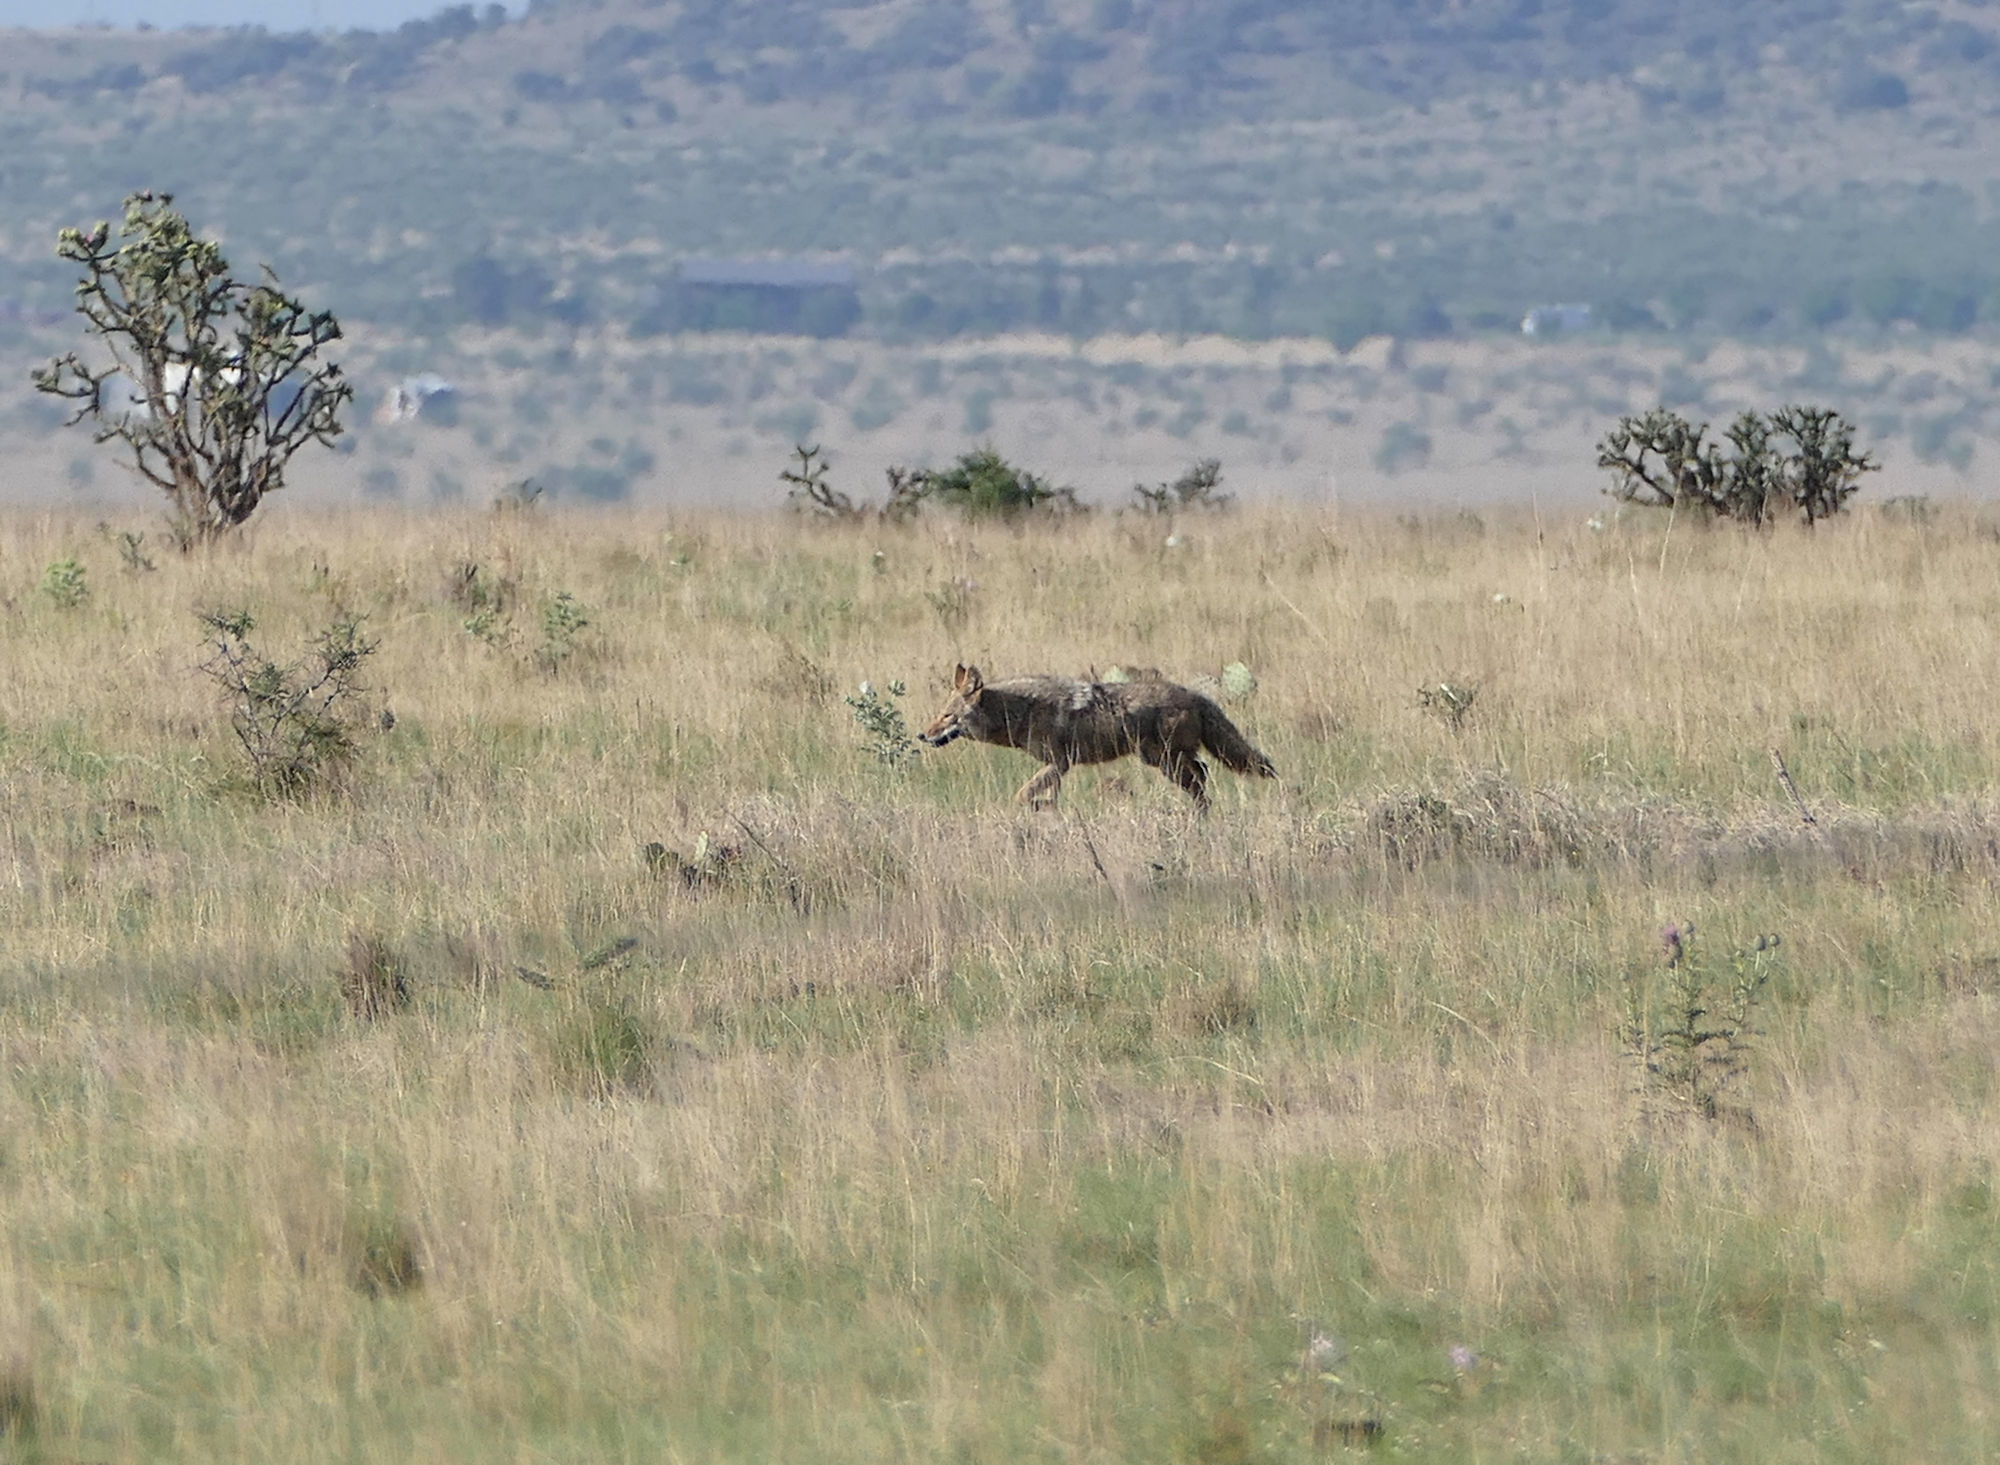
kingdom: Animalia
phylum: Chordata
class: Mammalia
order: Carnivora
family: Canidae
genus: Canis
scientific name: Canis latrans
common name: Coyote
